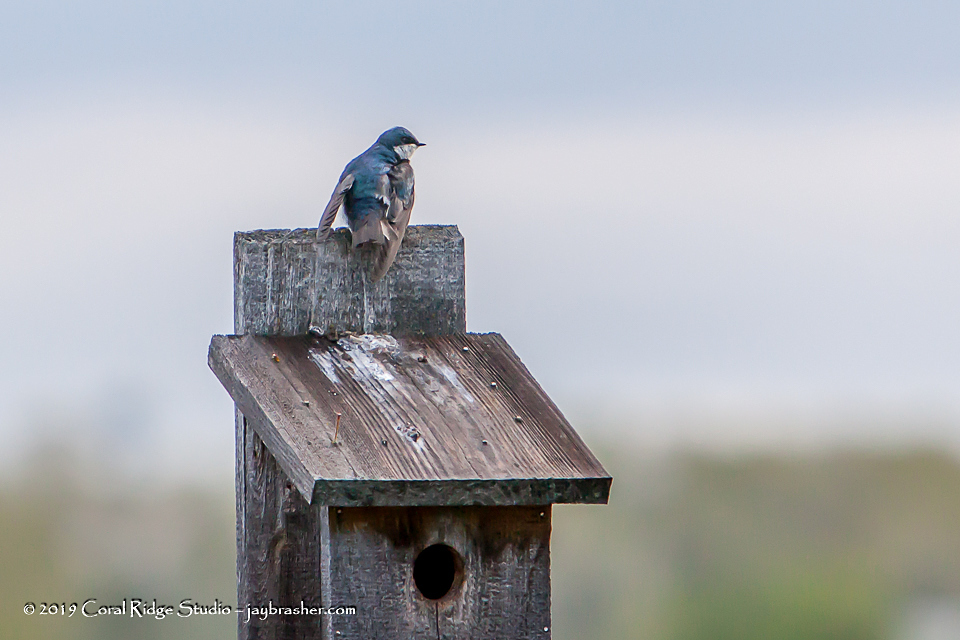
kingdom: Animalia
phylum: Chordata
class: Aves
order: Passeriformes
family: Hirundinidae
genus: Tachycineta
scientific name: Tachycineta bicolor
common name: Tree swallow
